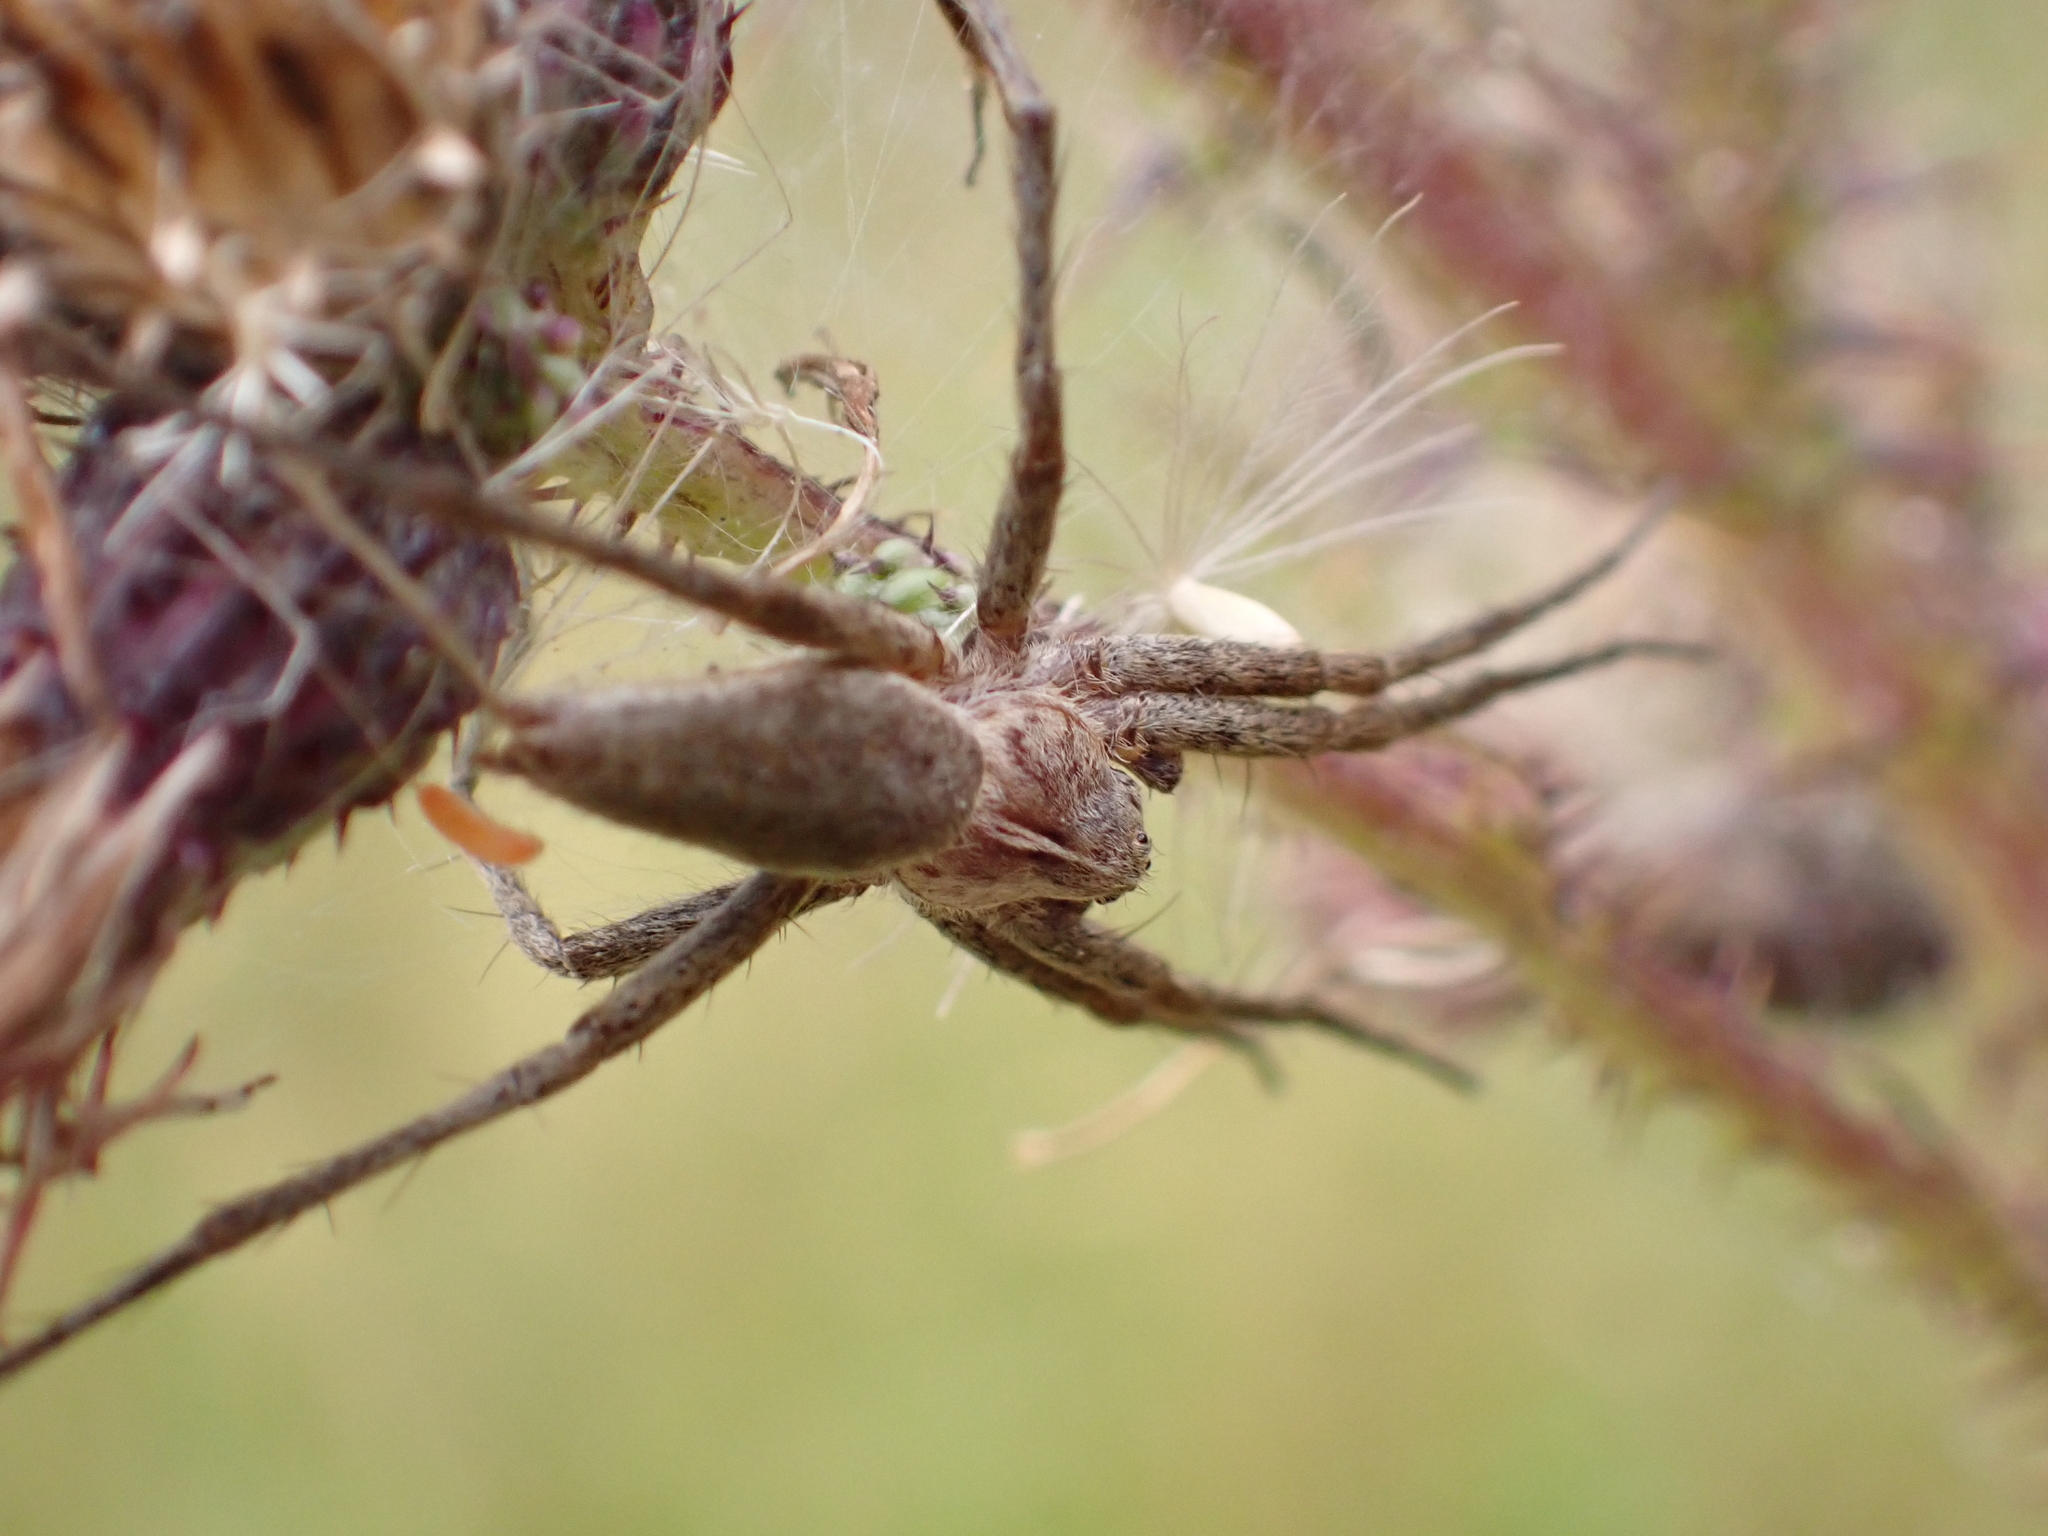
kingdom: Animalia
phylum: Arthropoda
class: Arachnida
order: Araneae
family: Pisauridae
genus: Pisaura
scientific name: Pisaura mirabilis
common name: Tent spider
